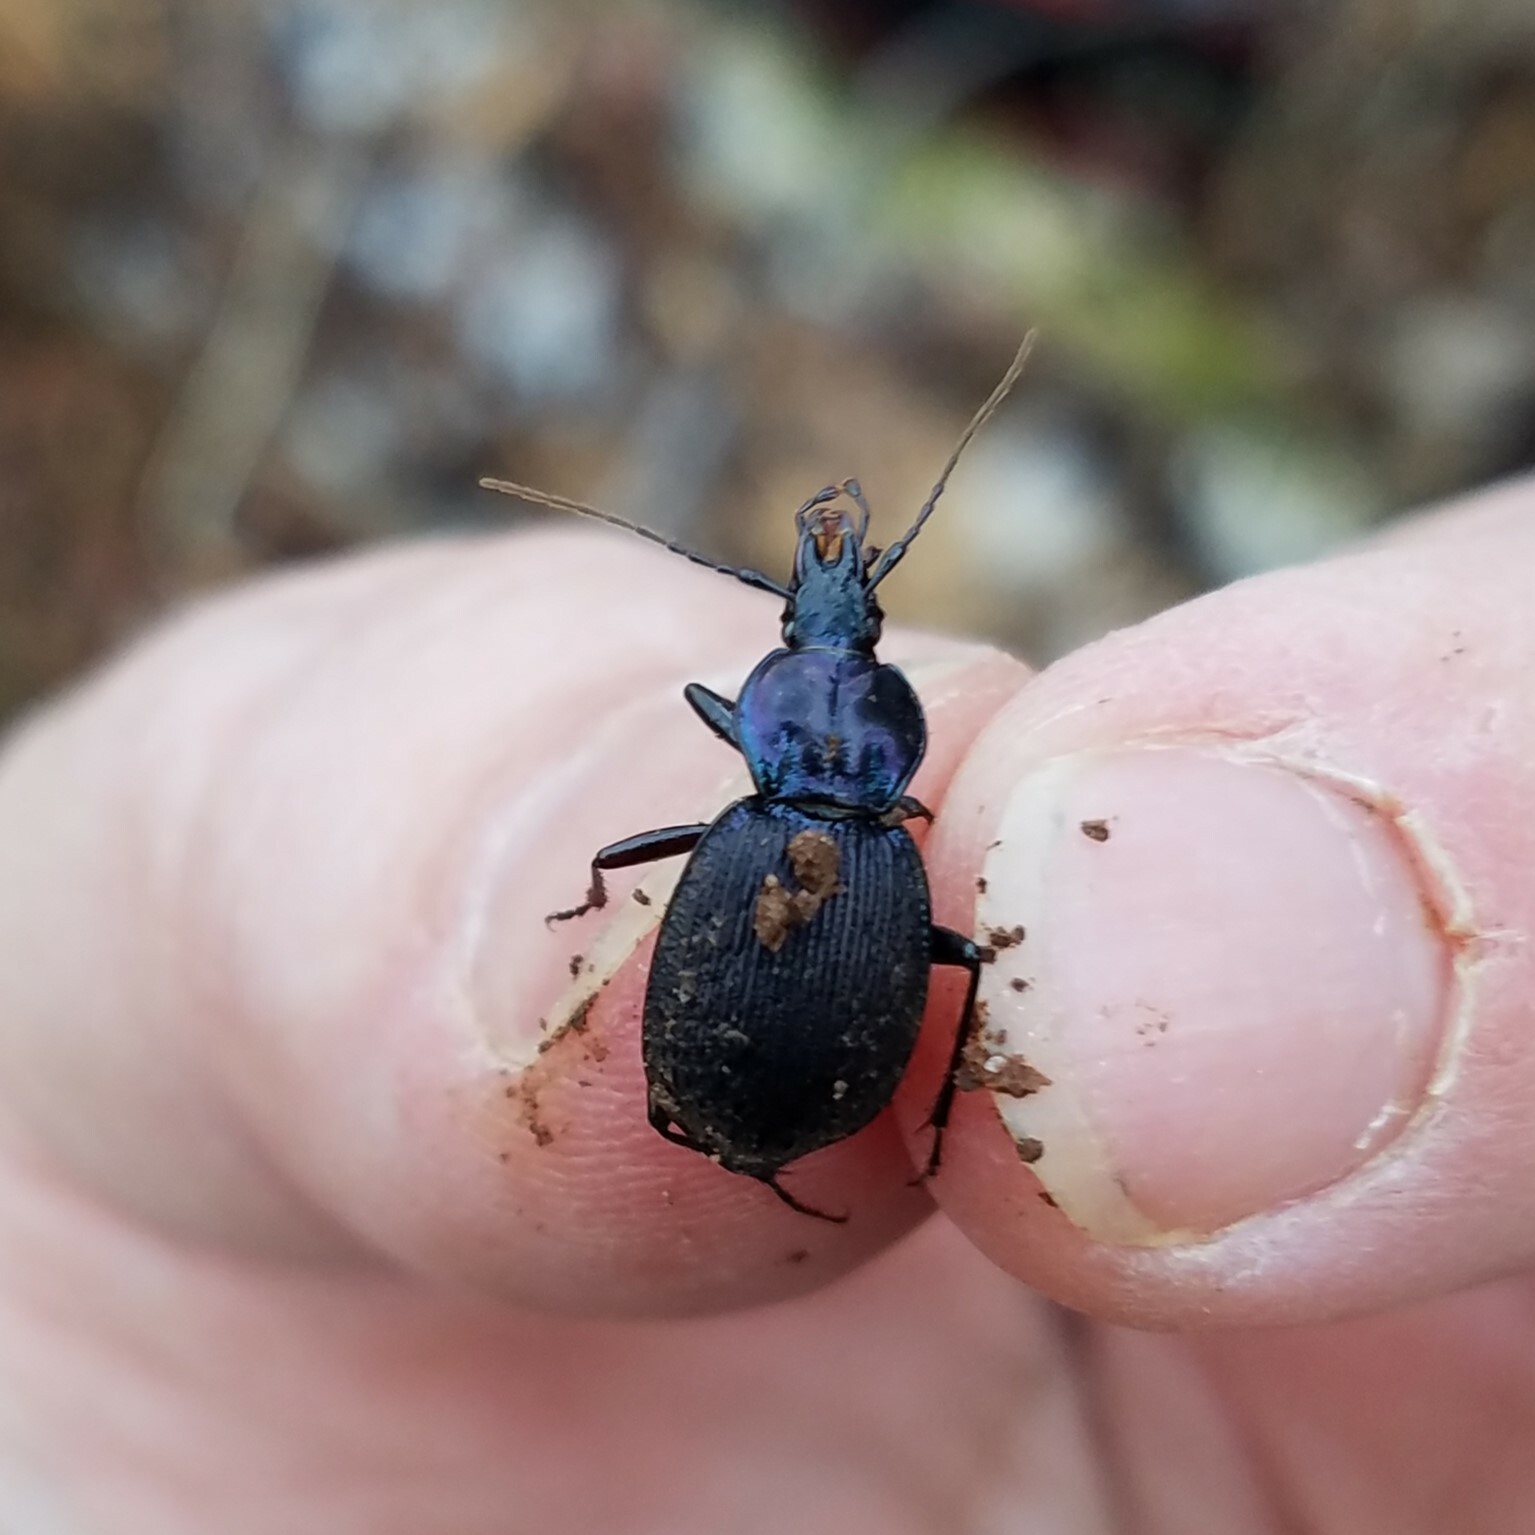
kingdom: Animalia
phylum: Arthropoda
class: Insecta
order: Coleoptera
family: Carabidae
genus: Sphaeroderus
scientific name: Sphaeroderus bicarinatus
